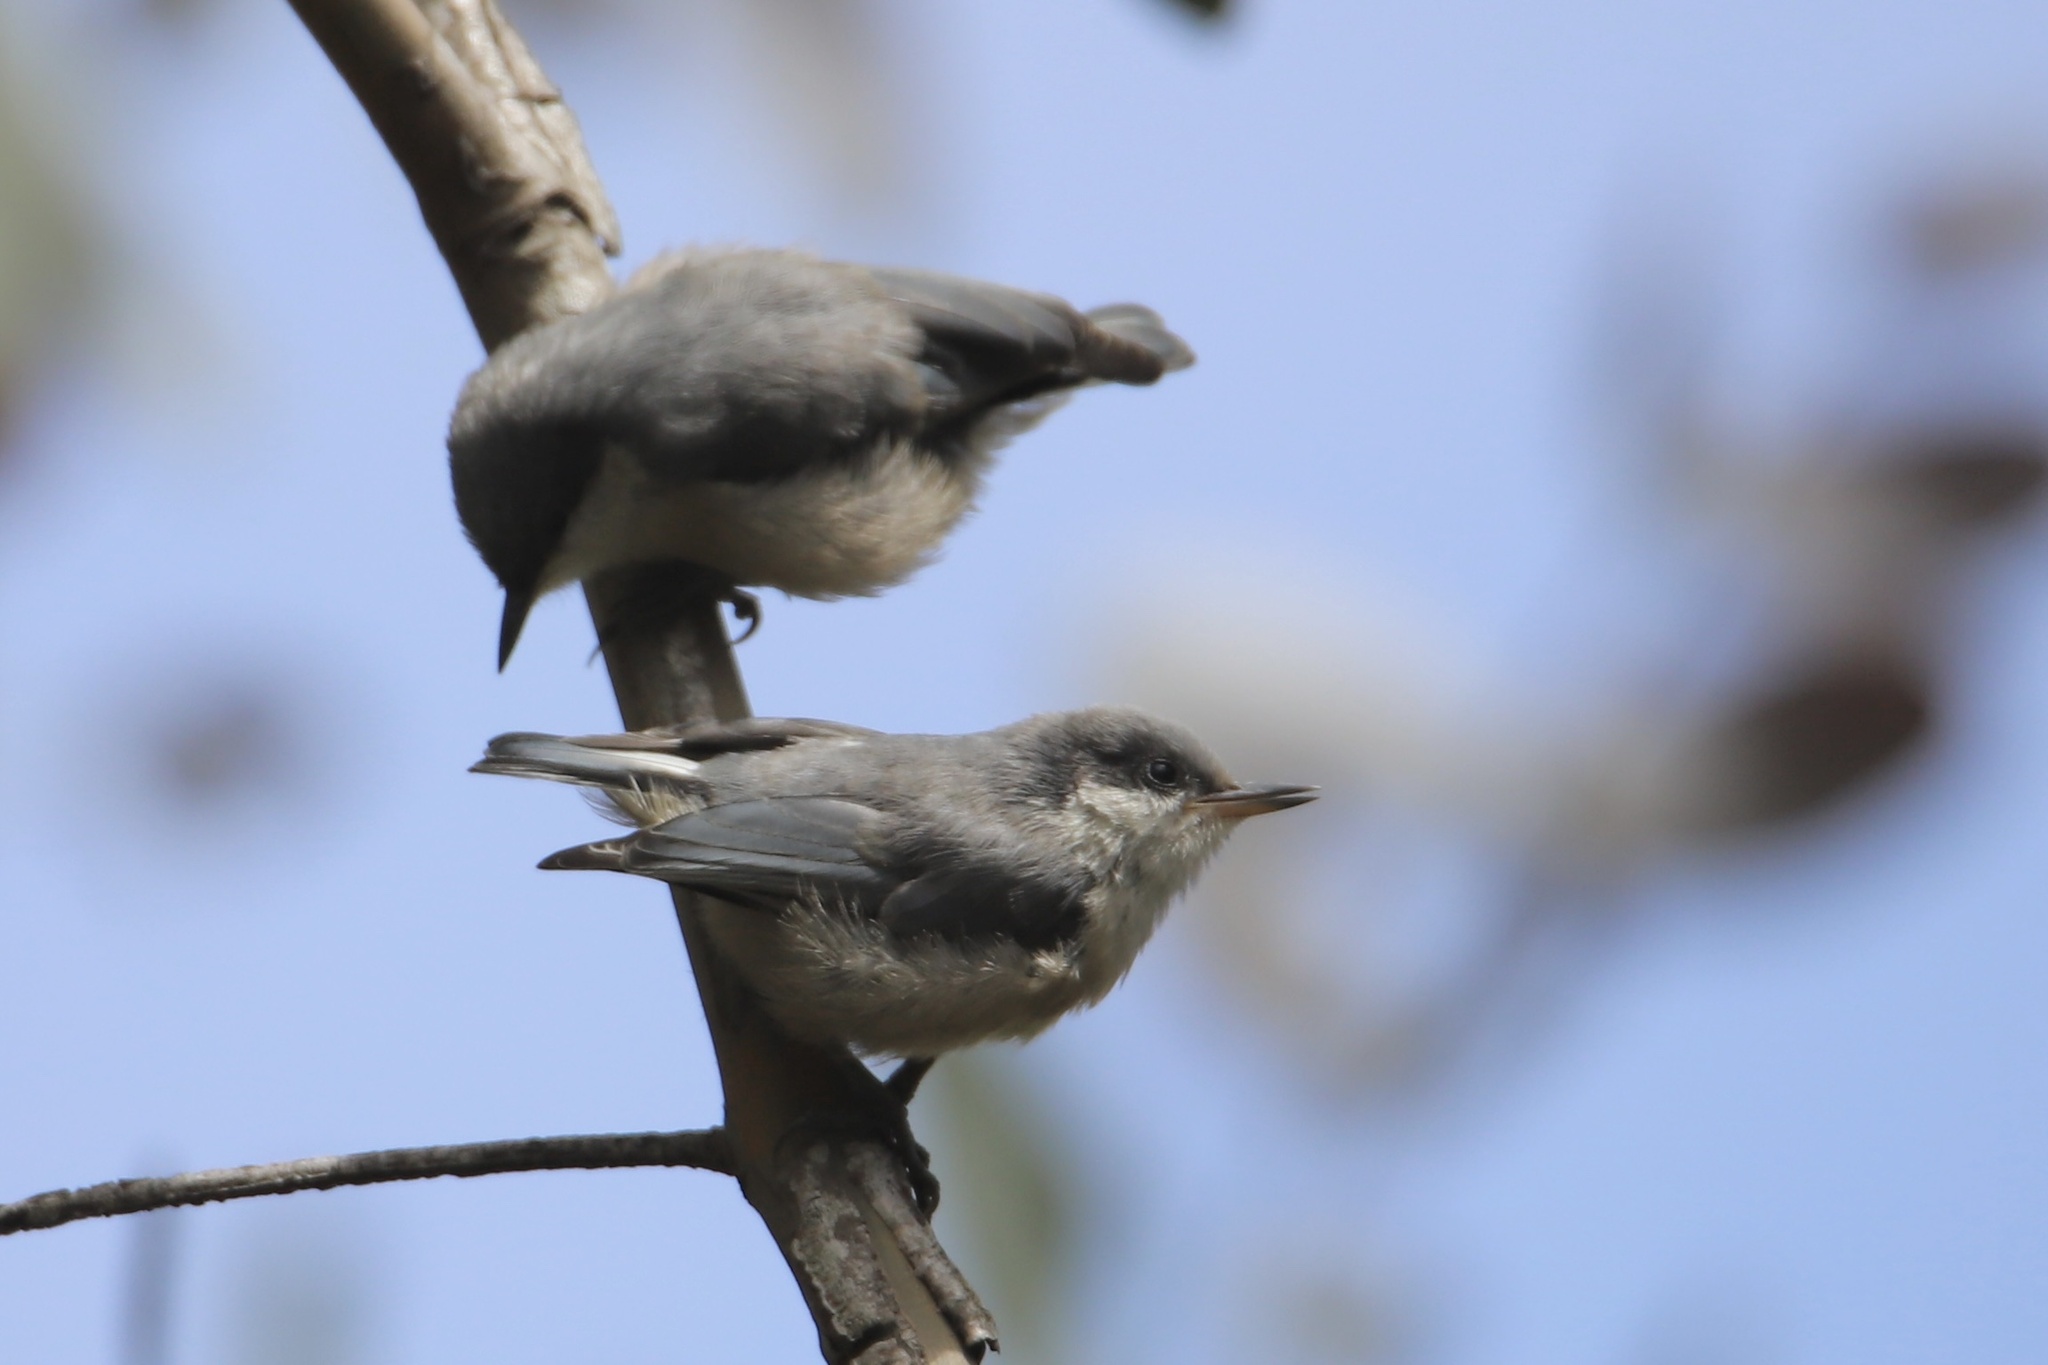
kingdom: Animalia
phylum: Chordata
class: Aves
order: Passeriformes
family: Sittidae
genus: Sitta
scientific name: Sitta pygmaea
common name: Pygmy nuthatch
